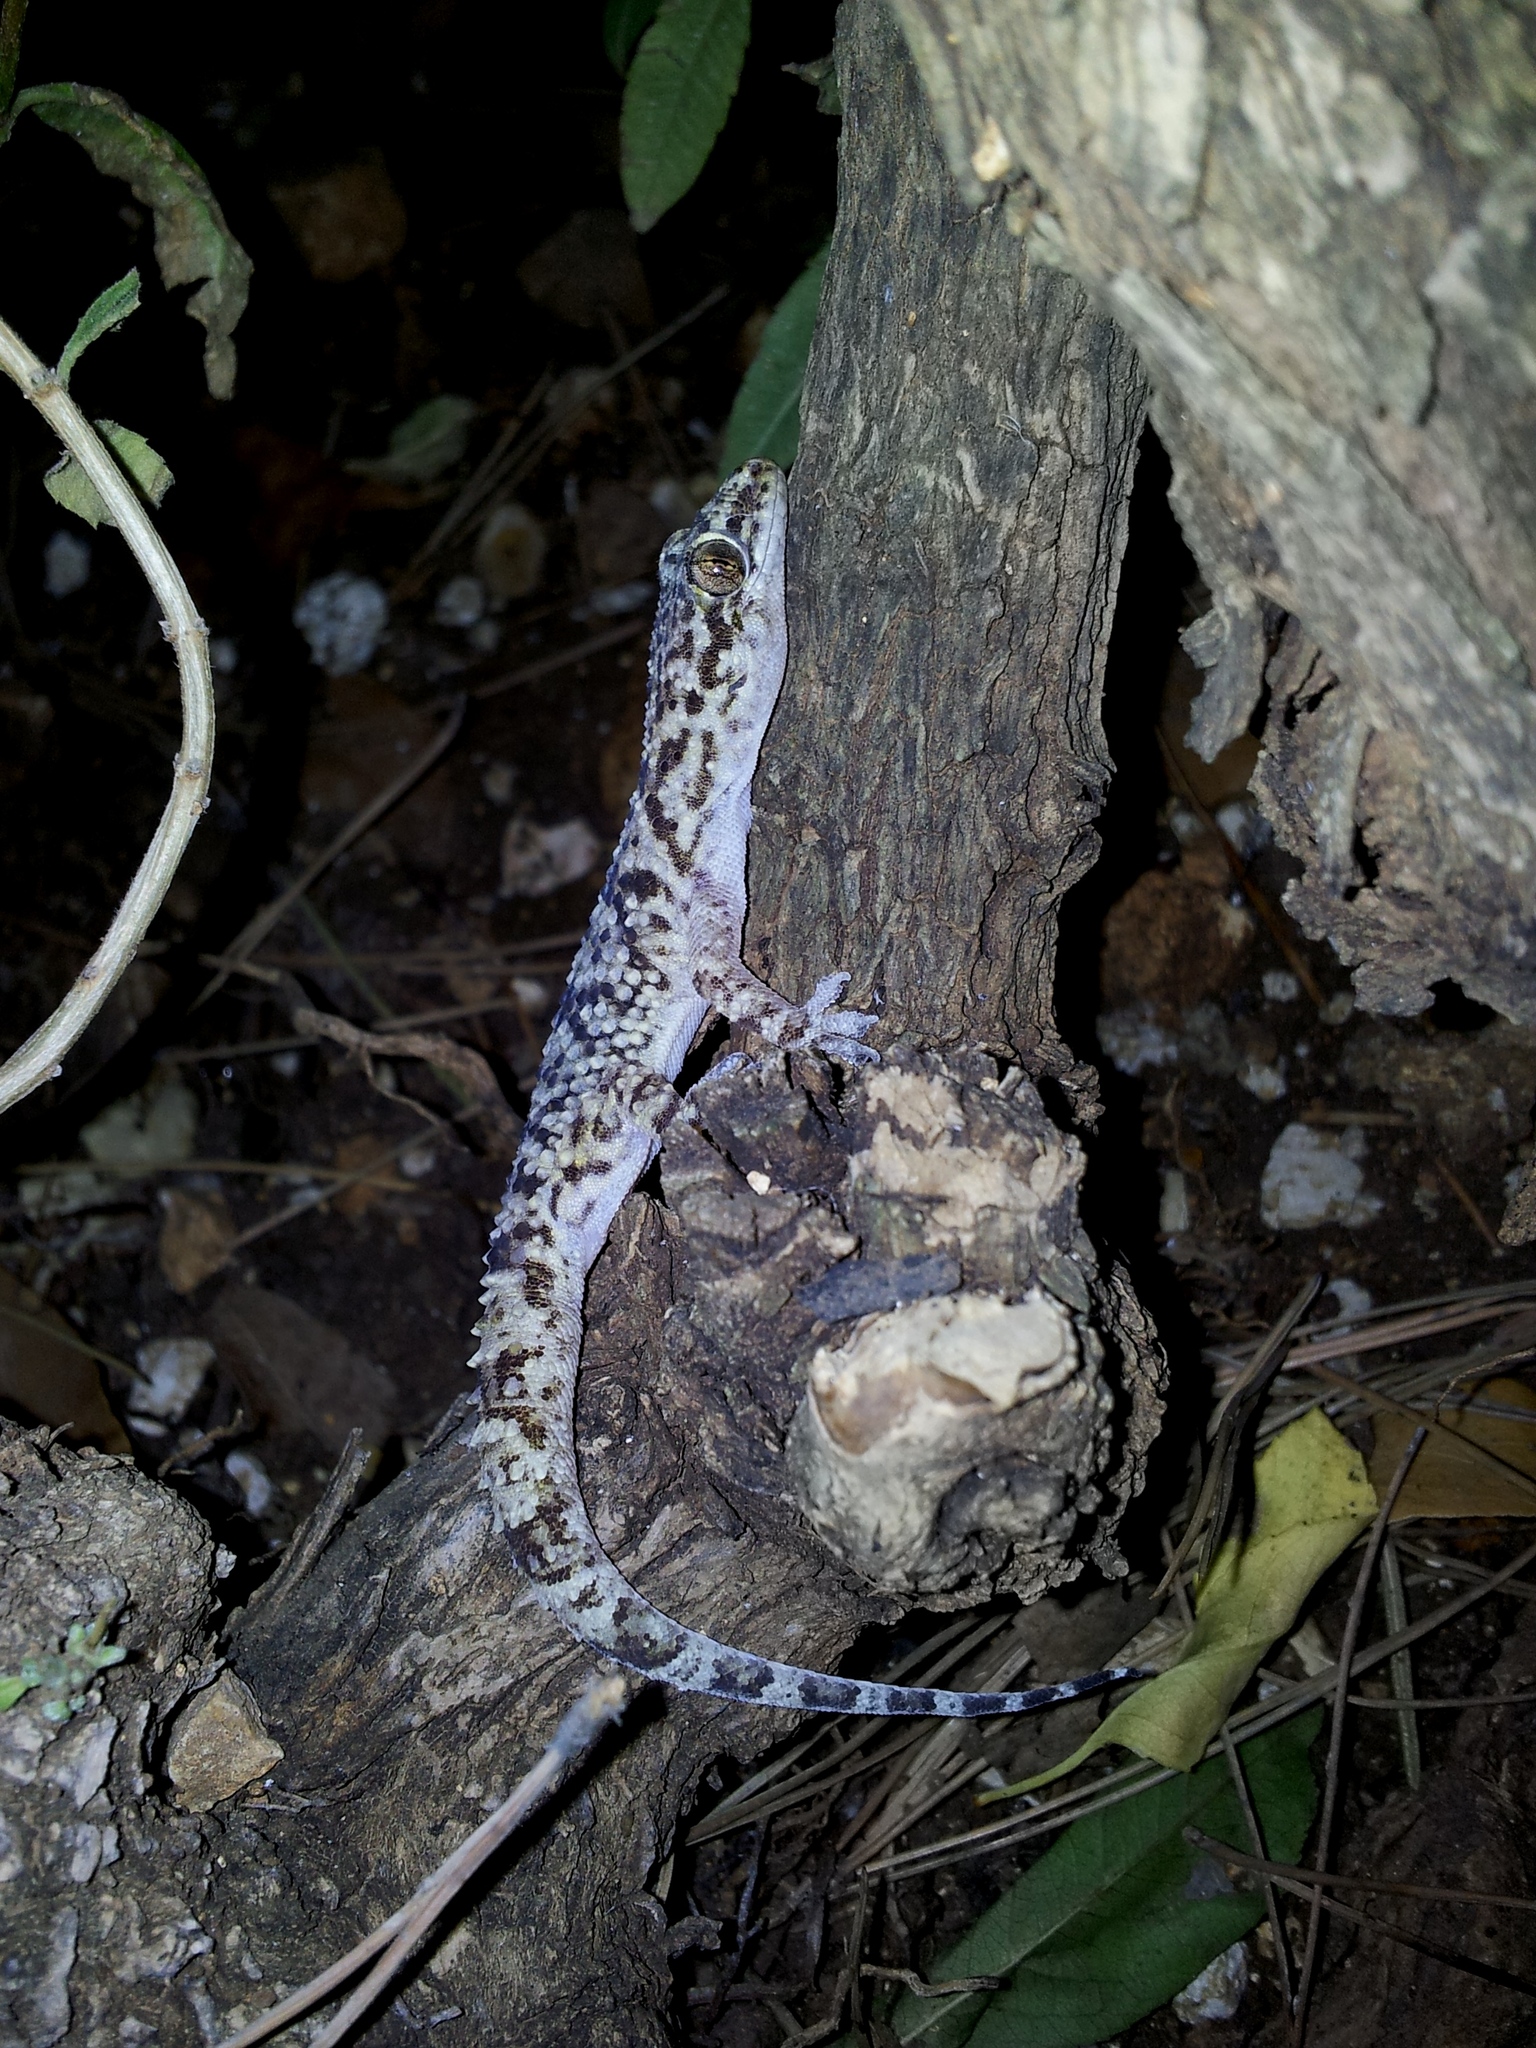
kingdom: Animalia
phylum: Chordata
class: Squamata
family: Gekkonidae
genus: Hemidactylus
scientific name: Hemidactylus turcicus
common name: Turkish gecko
